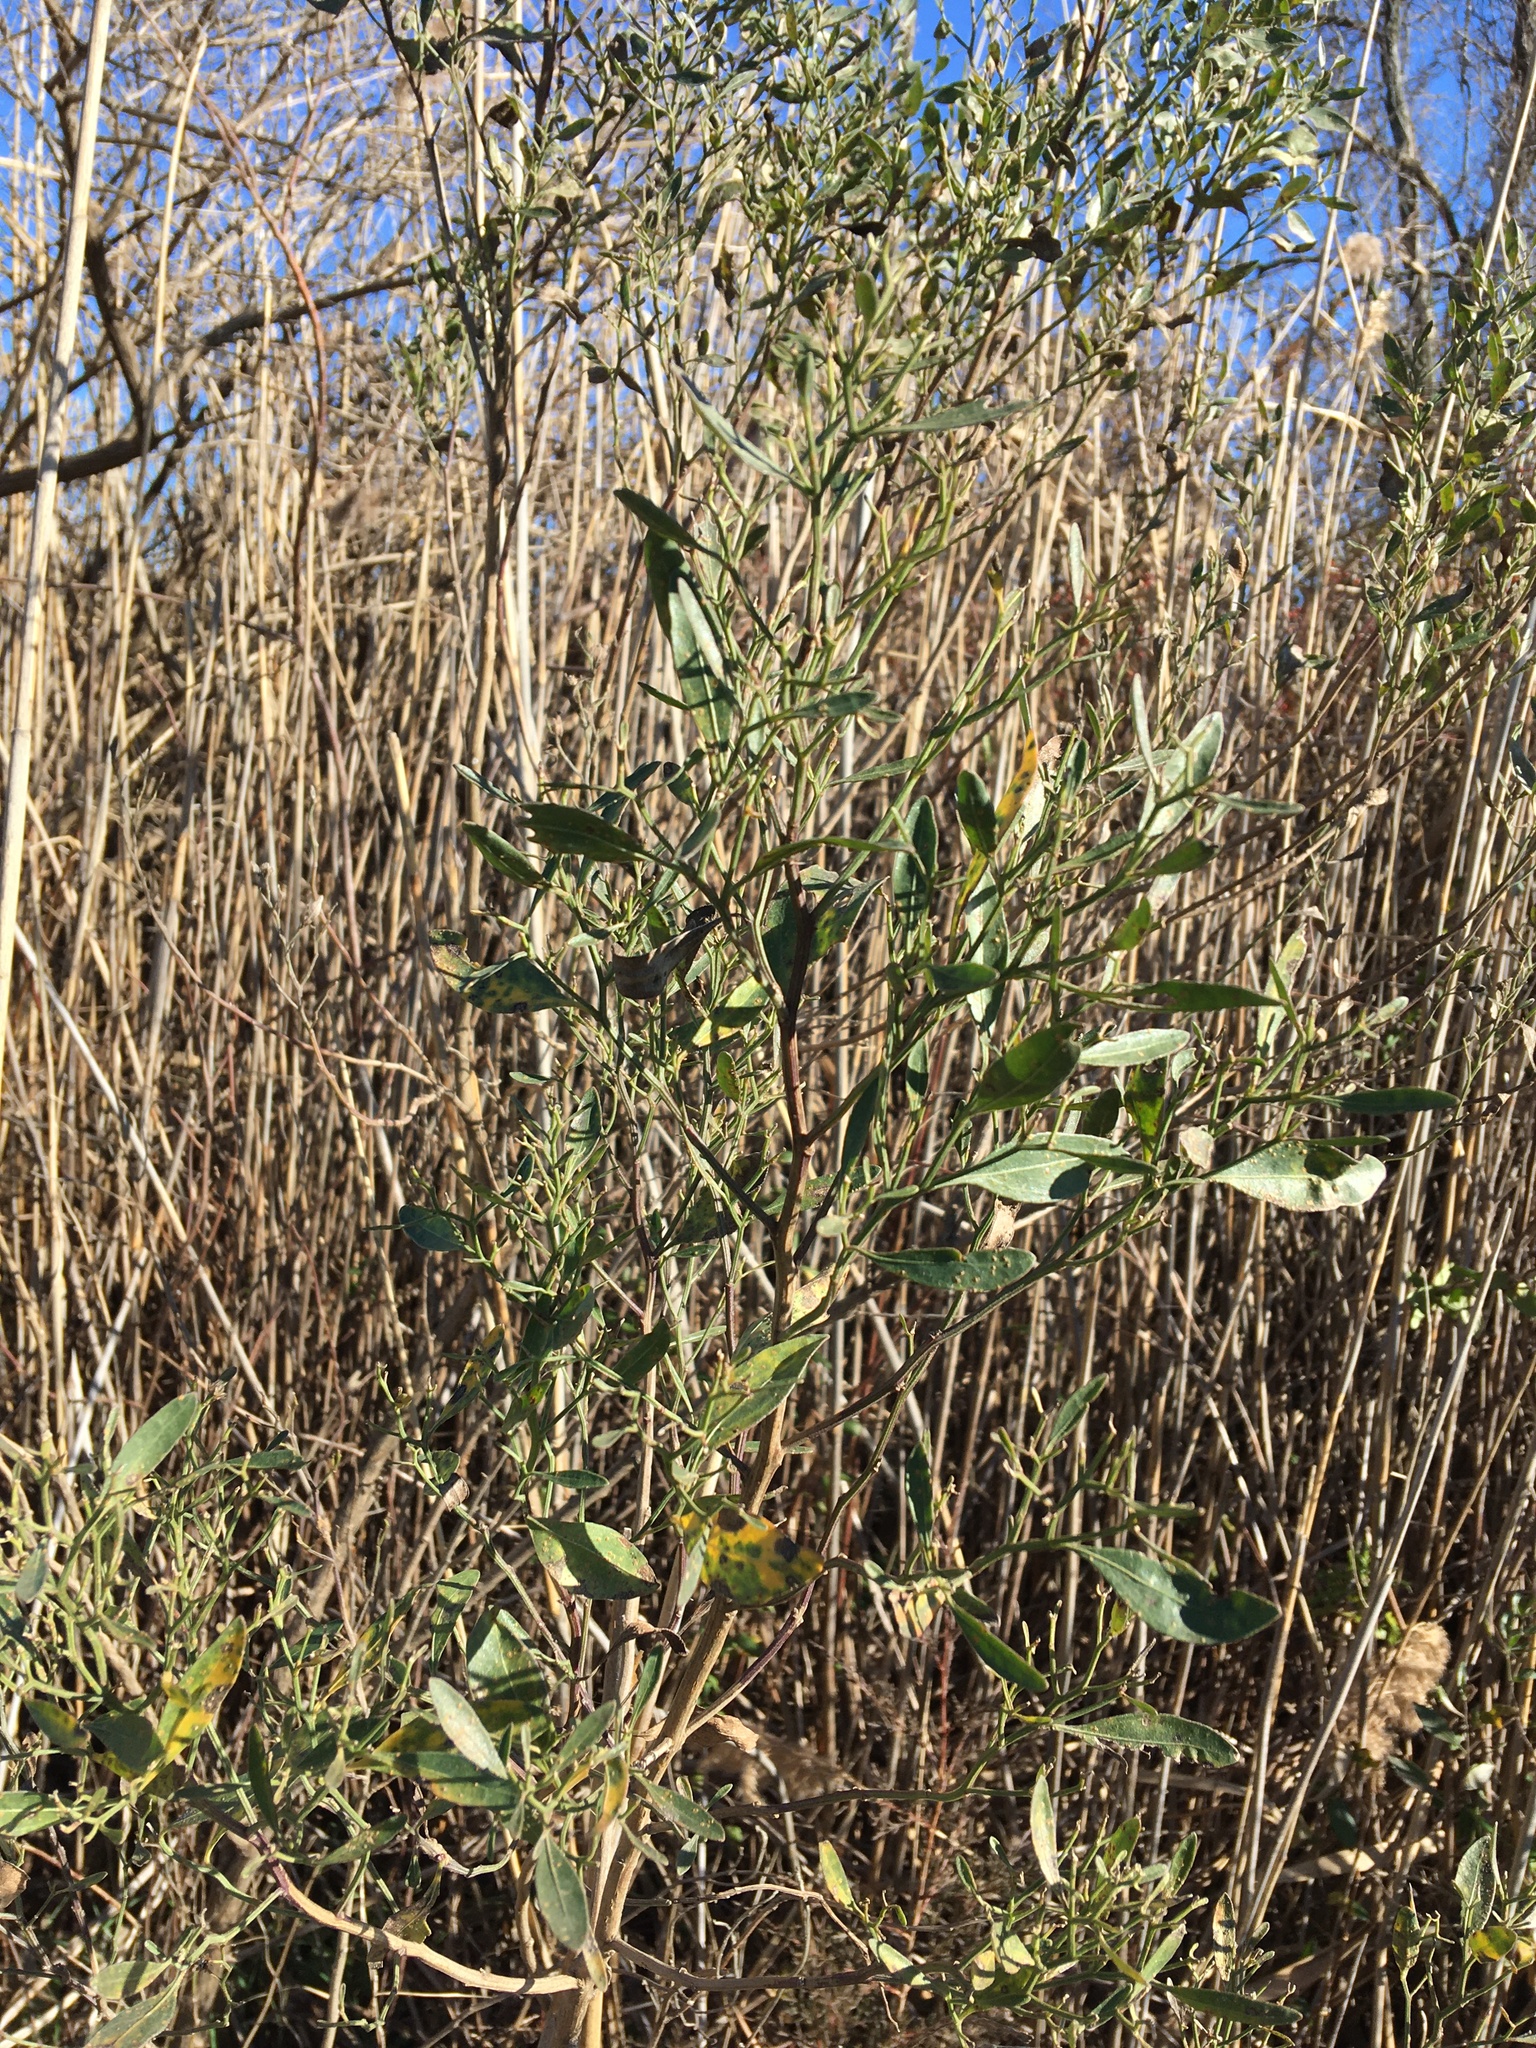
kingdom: Plantae
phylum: Tracheophyta
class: Magnoliopsida
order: Asterales
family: Asteraceae
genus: Baccharis
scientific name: Baccharis halimifolia
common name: Eastern baccharis
